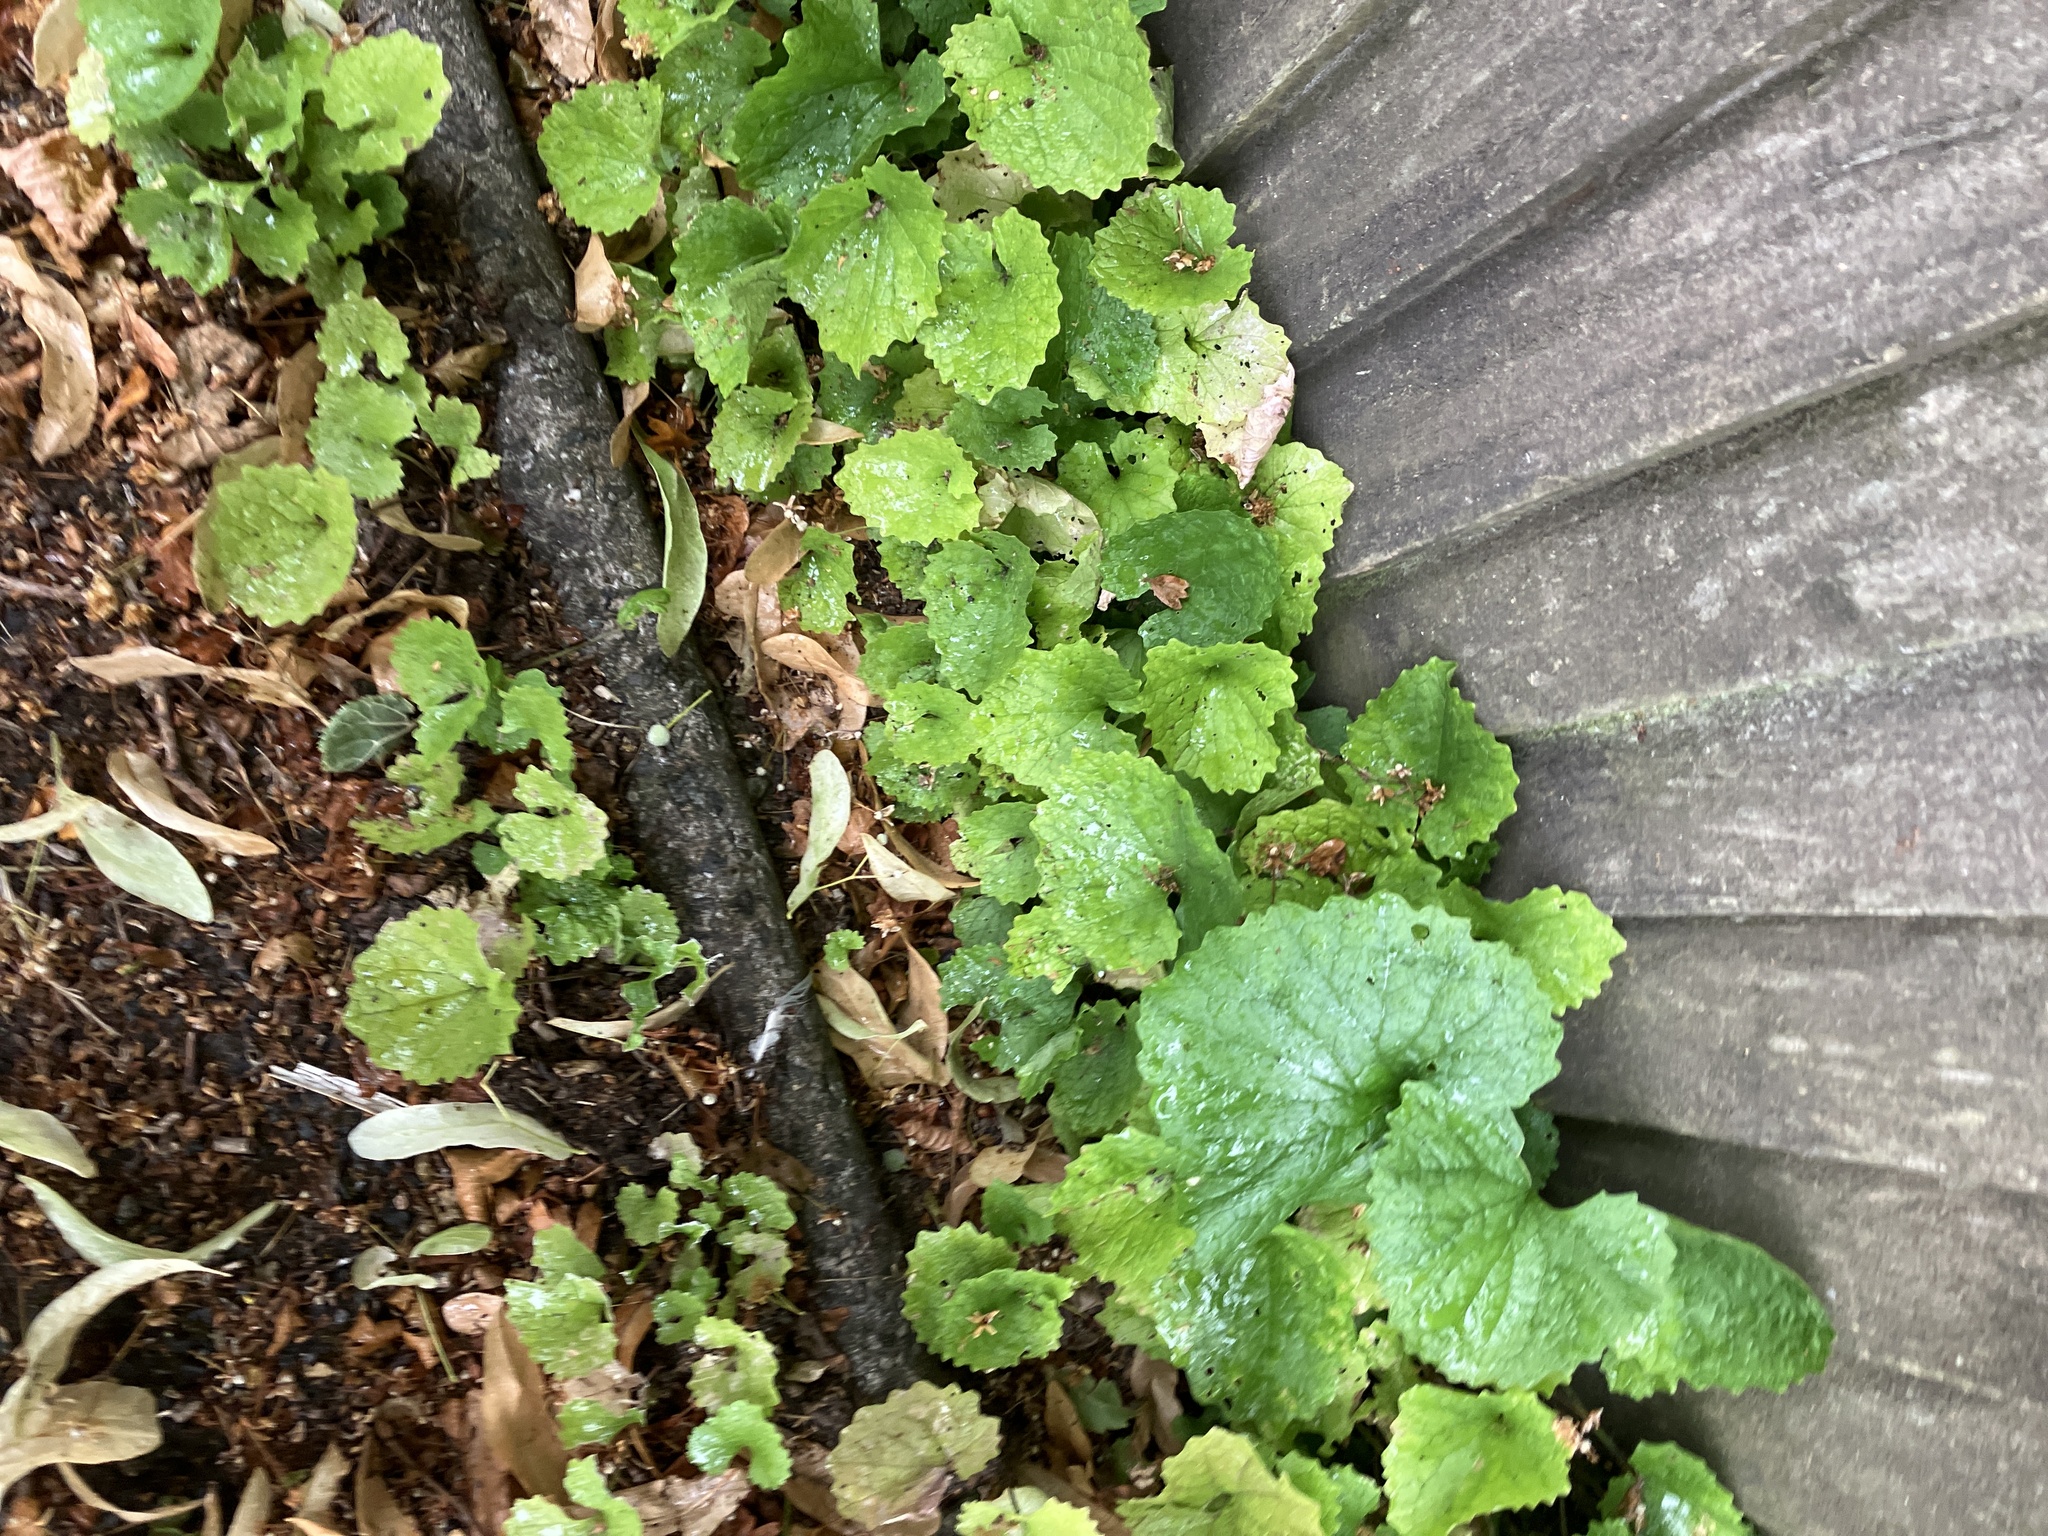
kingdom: Plantae
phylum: Tracheophyta
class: Magnoliopsida
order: Brassicales
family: Brassicaceae
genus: Alliaria
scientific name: Alliaria petiolata
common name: Garlic mustard
